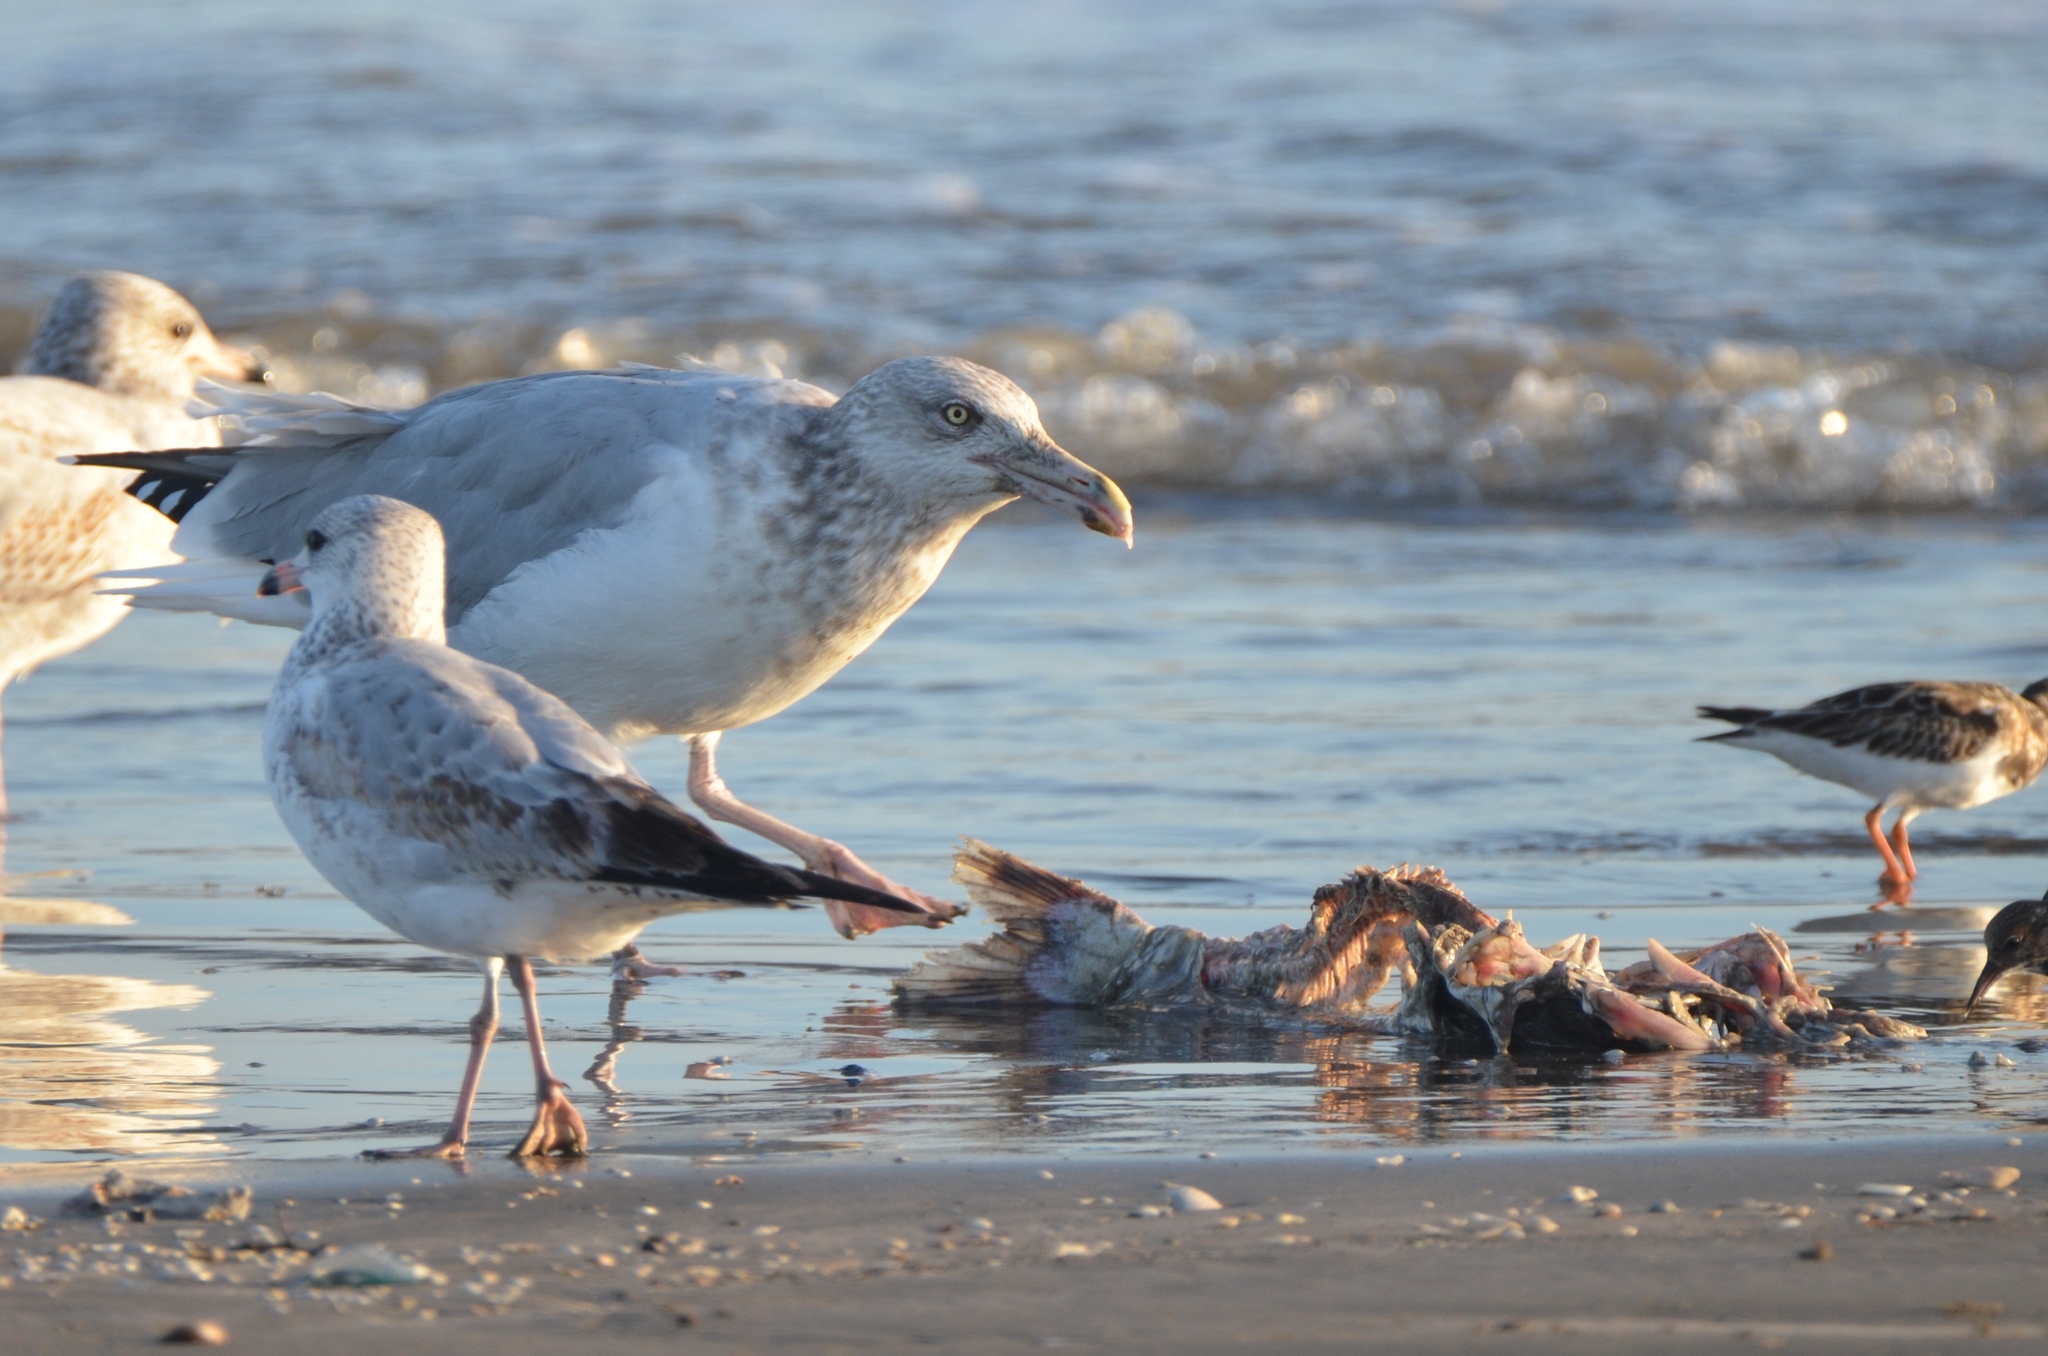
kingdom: Animalia
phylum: Chordata
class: Aves
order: Charadriiformes
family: Laridae
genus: Larus
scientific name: Larus argentatus
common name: Herring gull
